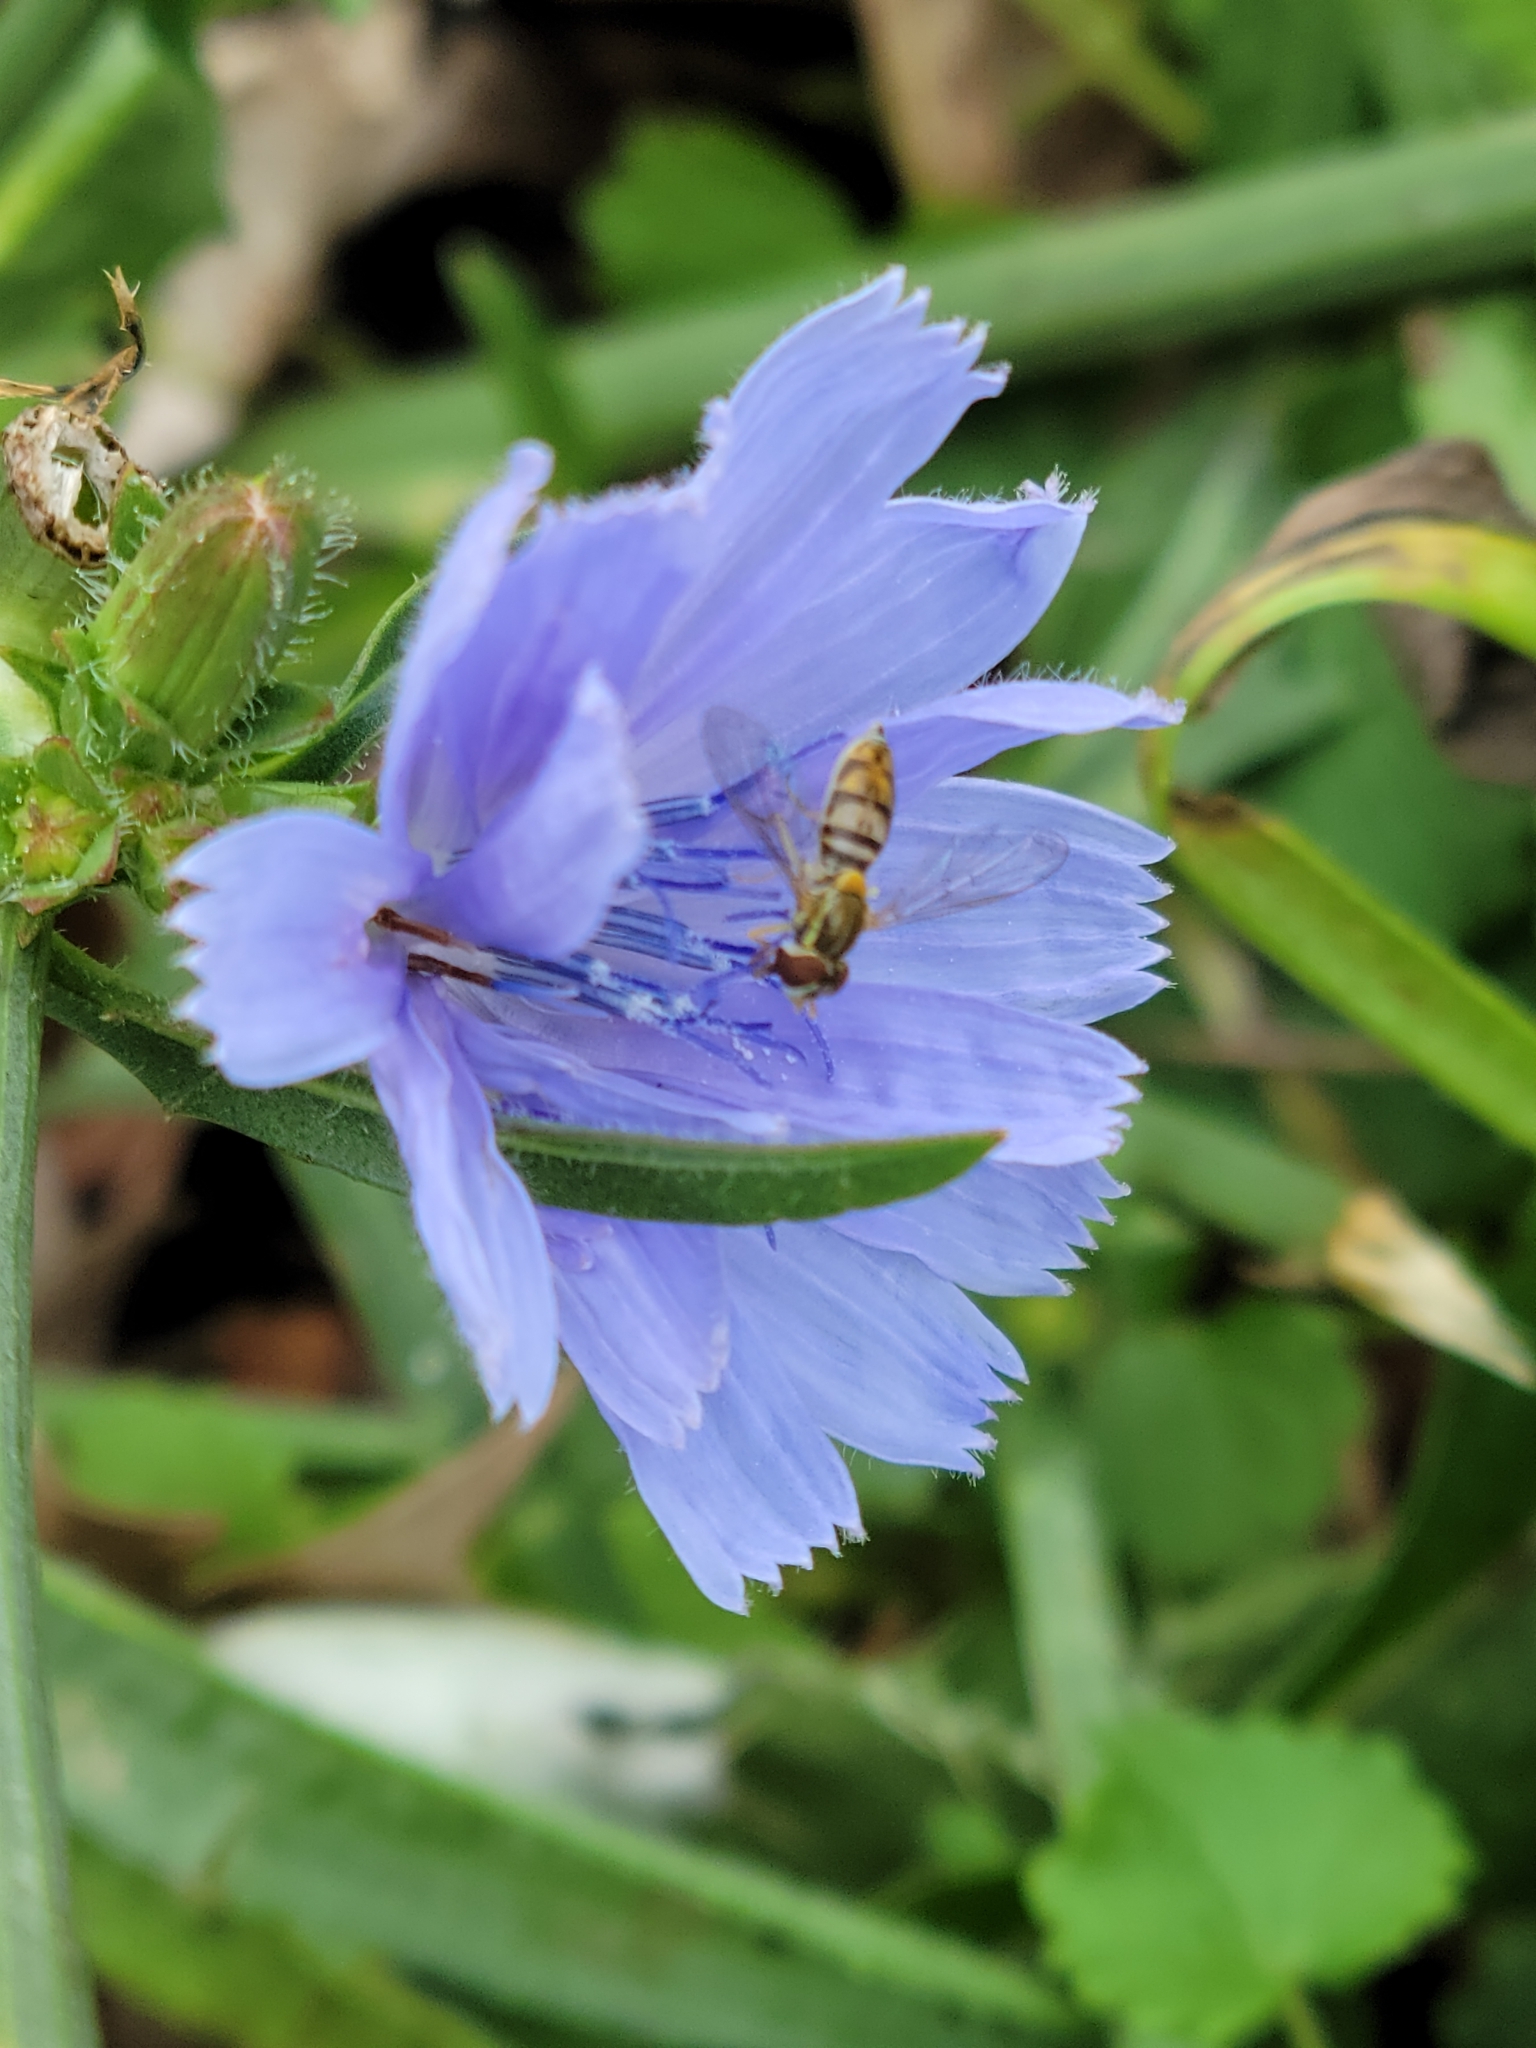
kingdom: Animalia
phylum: Arthropoda
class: Insecta
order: Diptera
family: Syrphidae
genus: Toxomerus
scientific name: Toxomerus marginatus
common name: Syrphid fly
